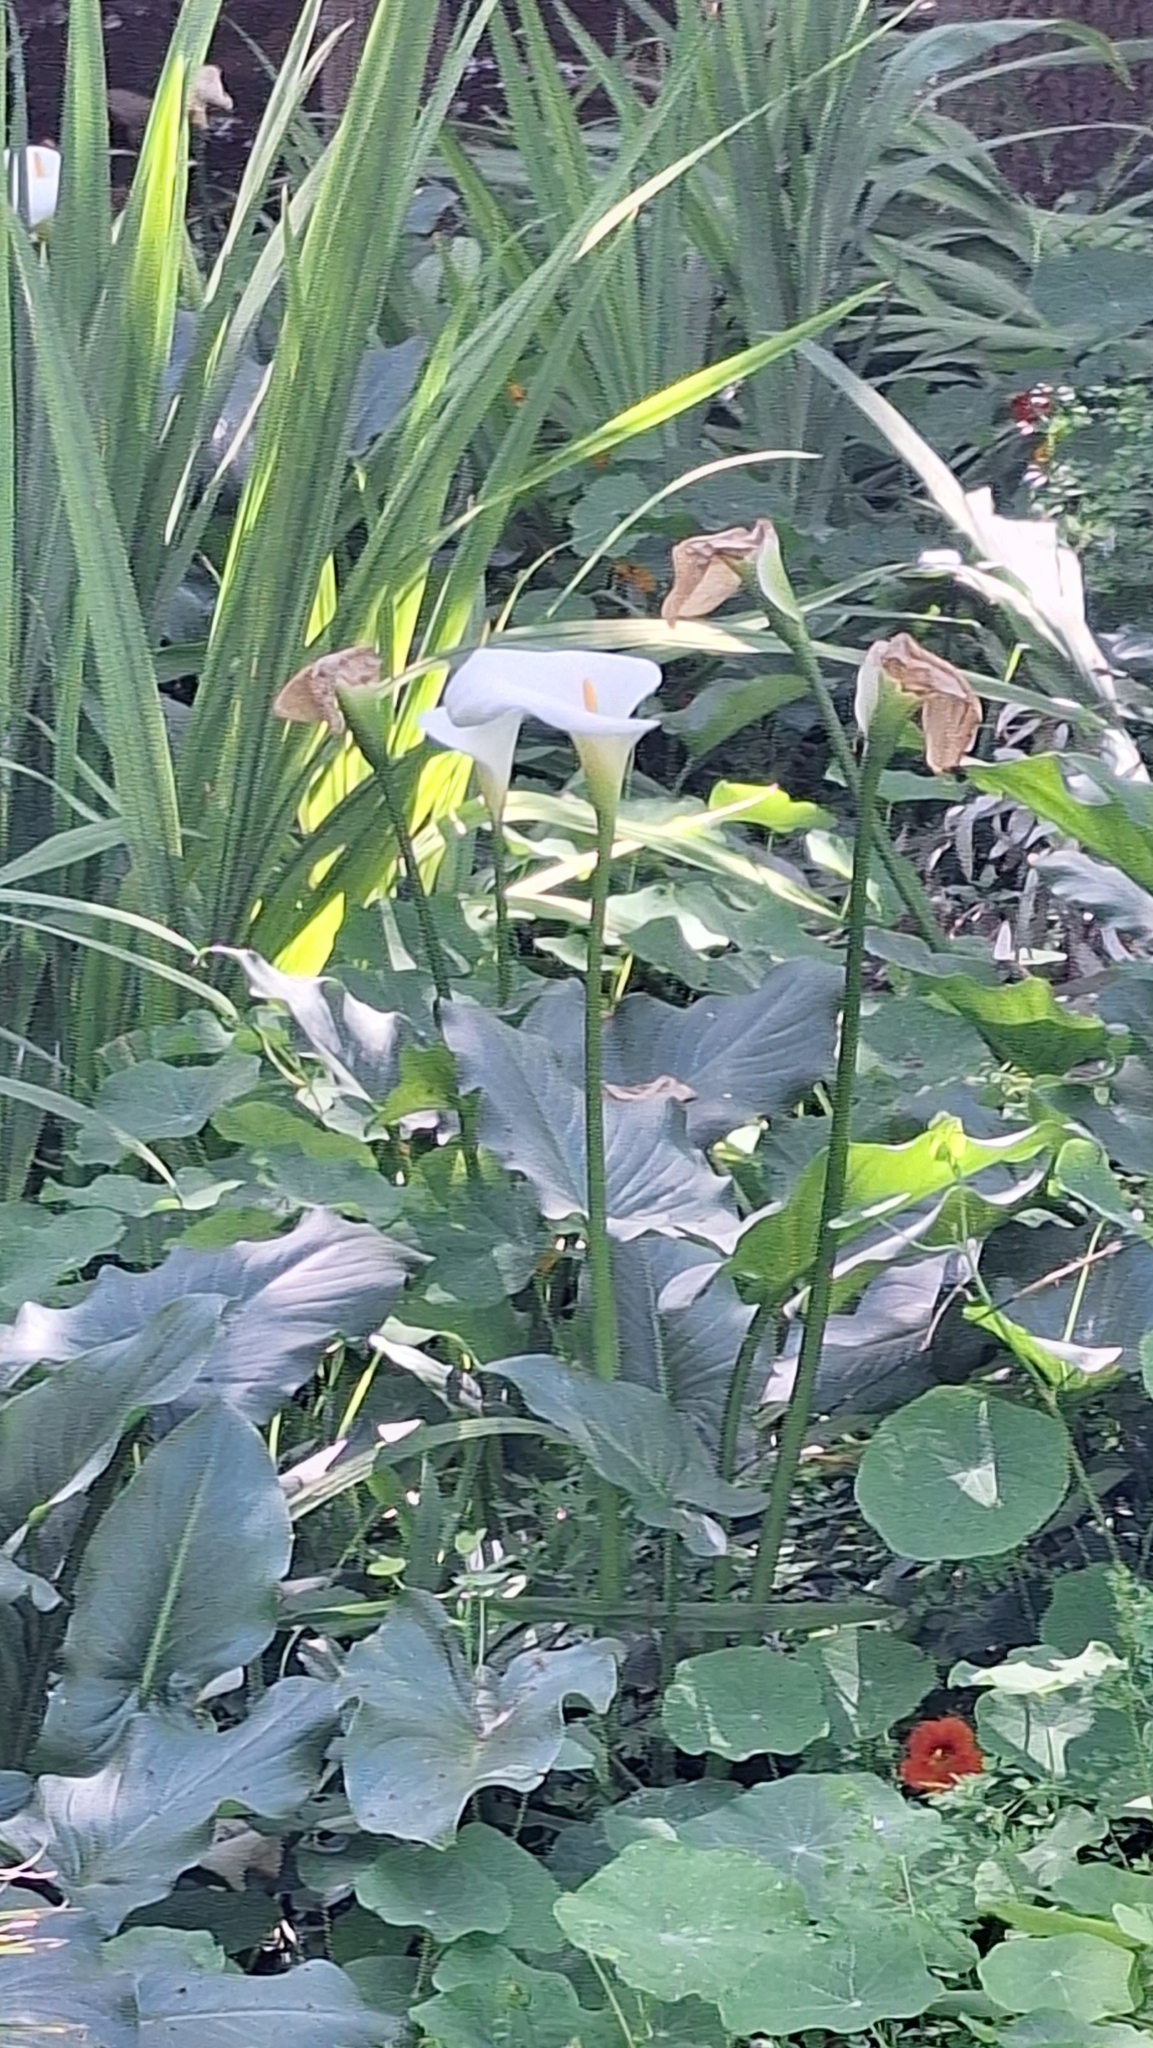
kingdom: Plantae
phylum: Tracheophyta
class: Liliopsida
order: Alismatales
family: Araceae
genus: Zantedeschia
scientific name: Zantedeschia aethiopica
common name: Altar-lily
